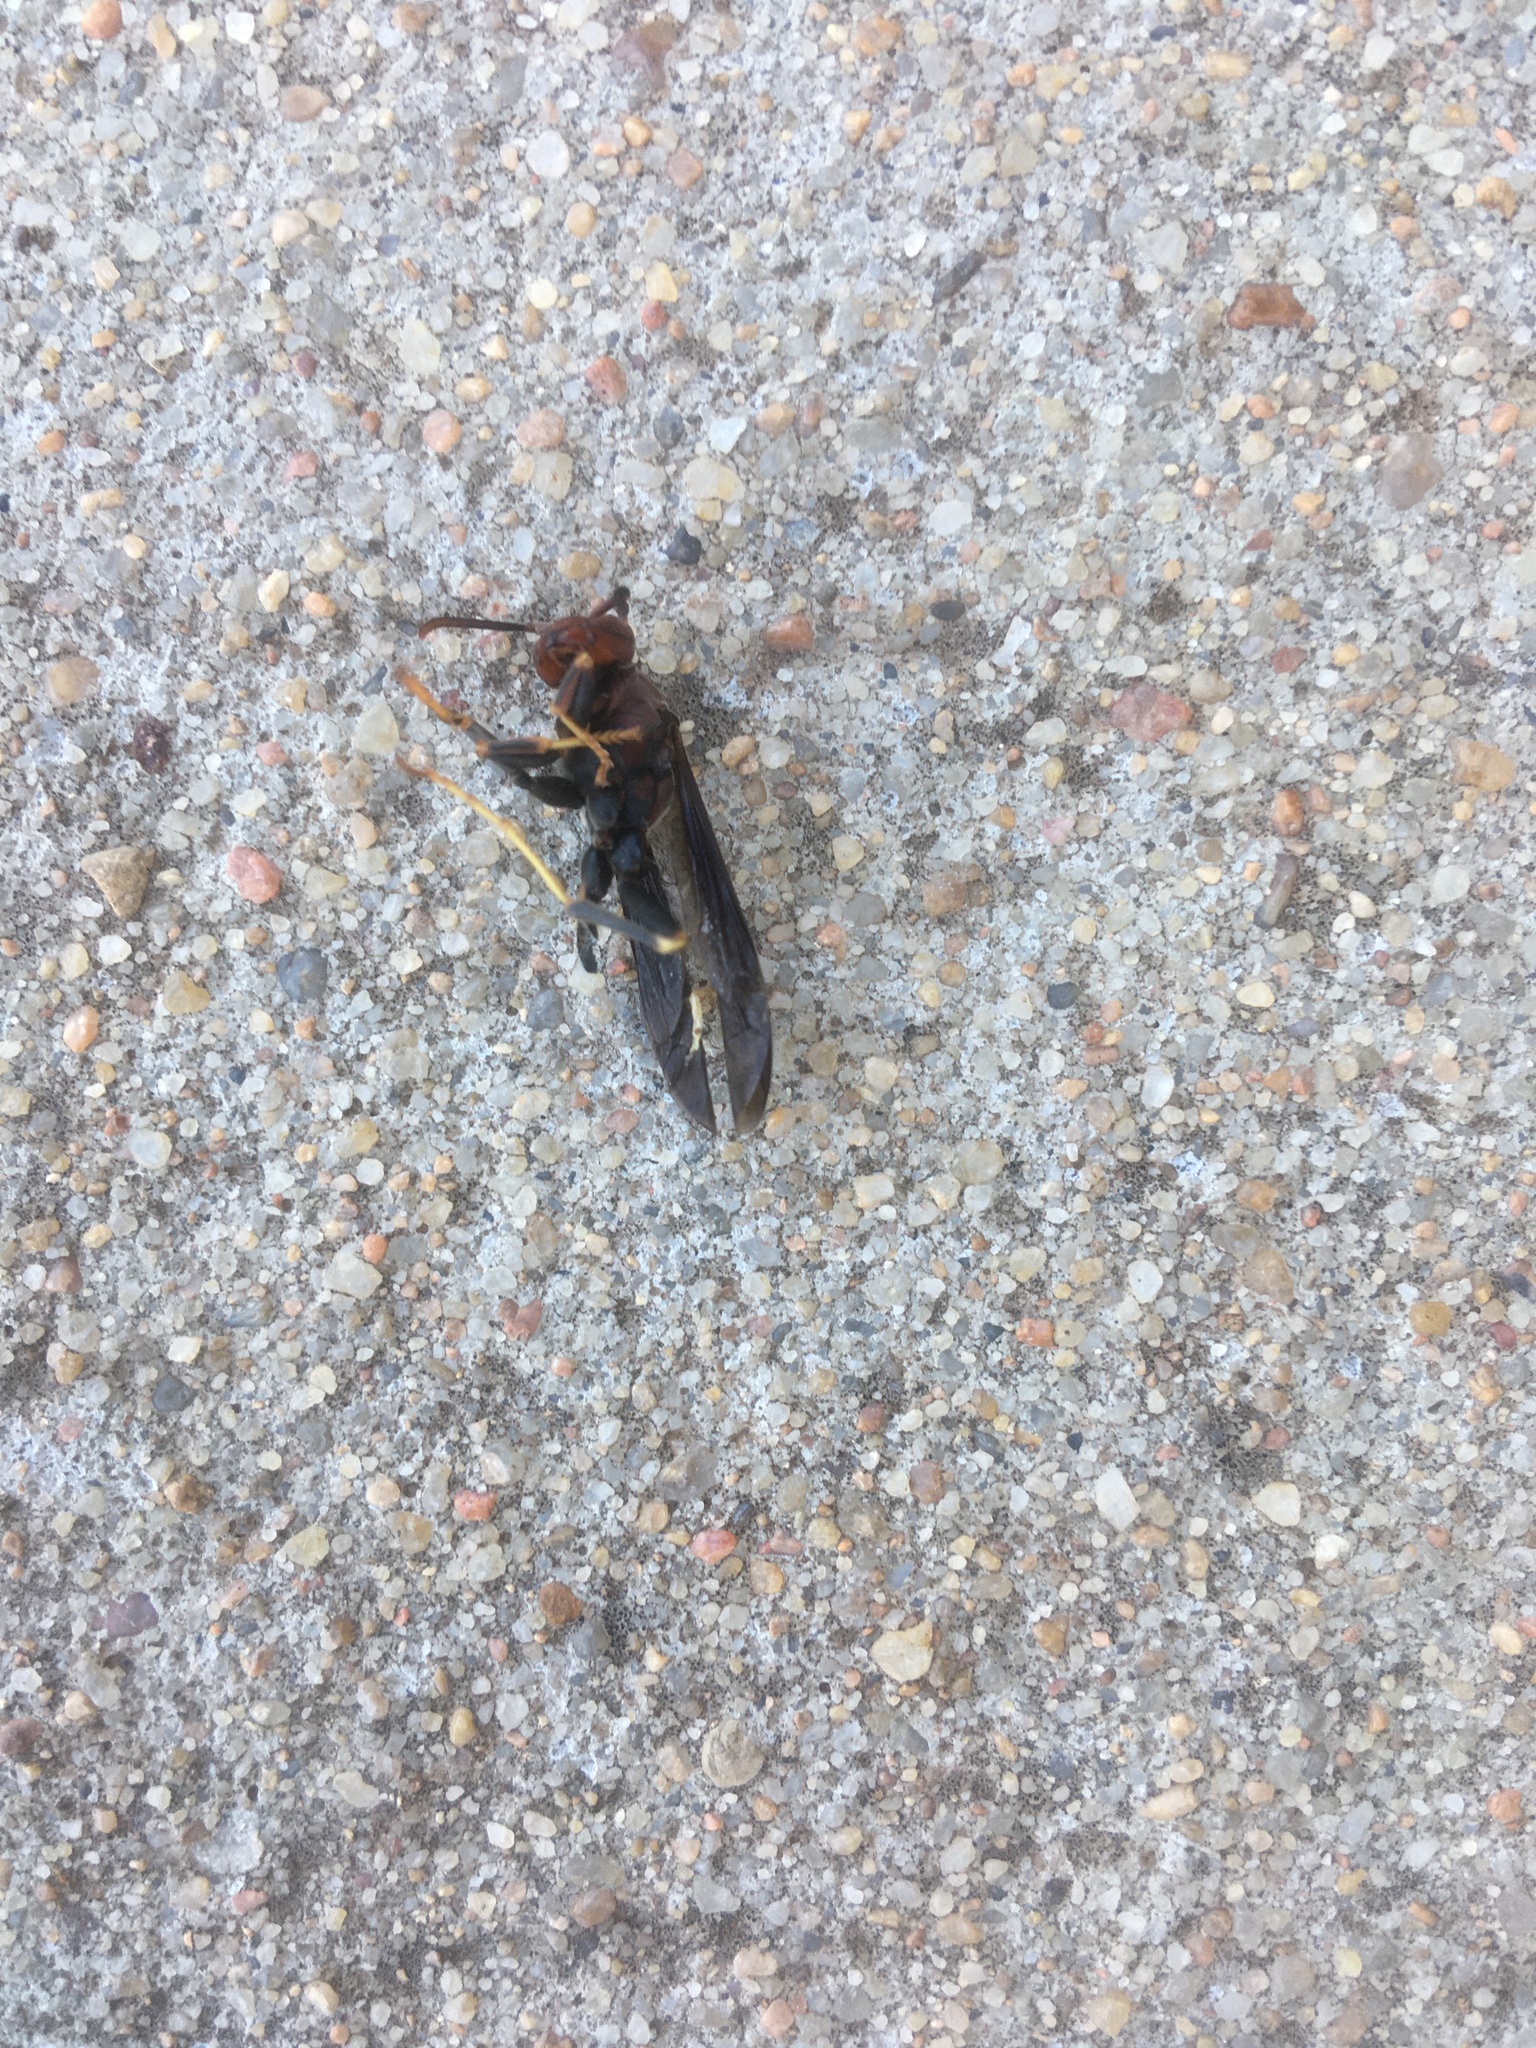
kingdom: Animalia
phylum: Arthropoda
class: Insecta
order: Hymenoptera
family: Eumenidae
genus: Polistes
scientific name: Polistes
